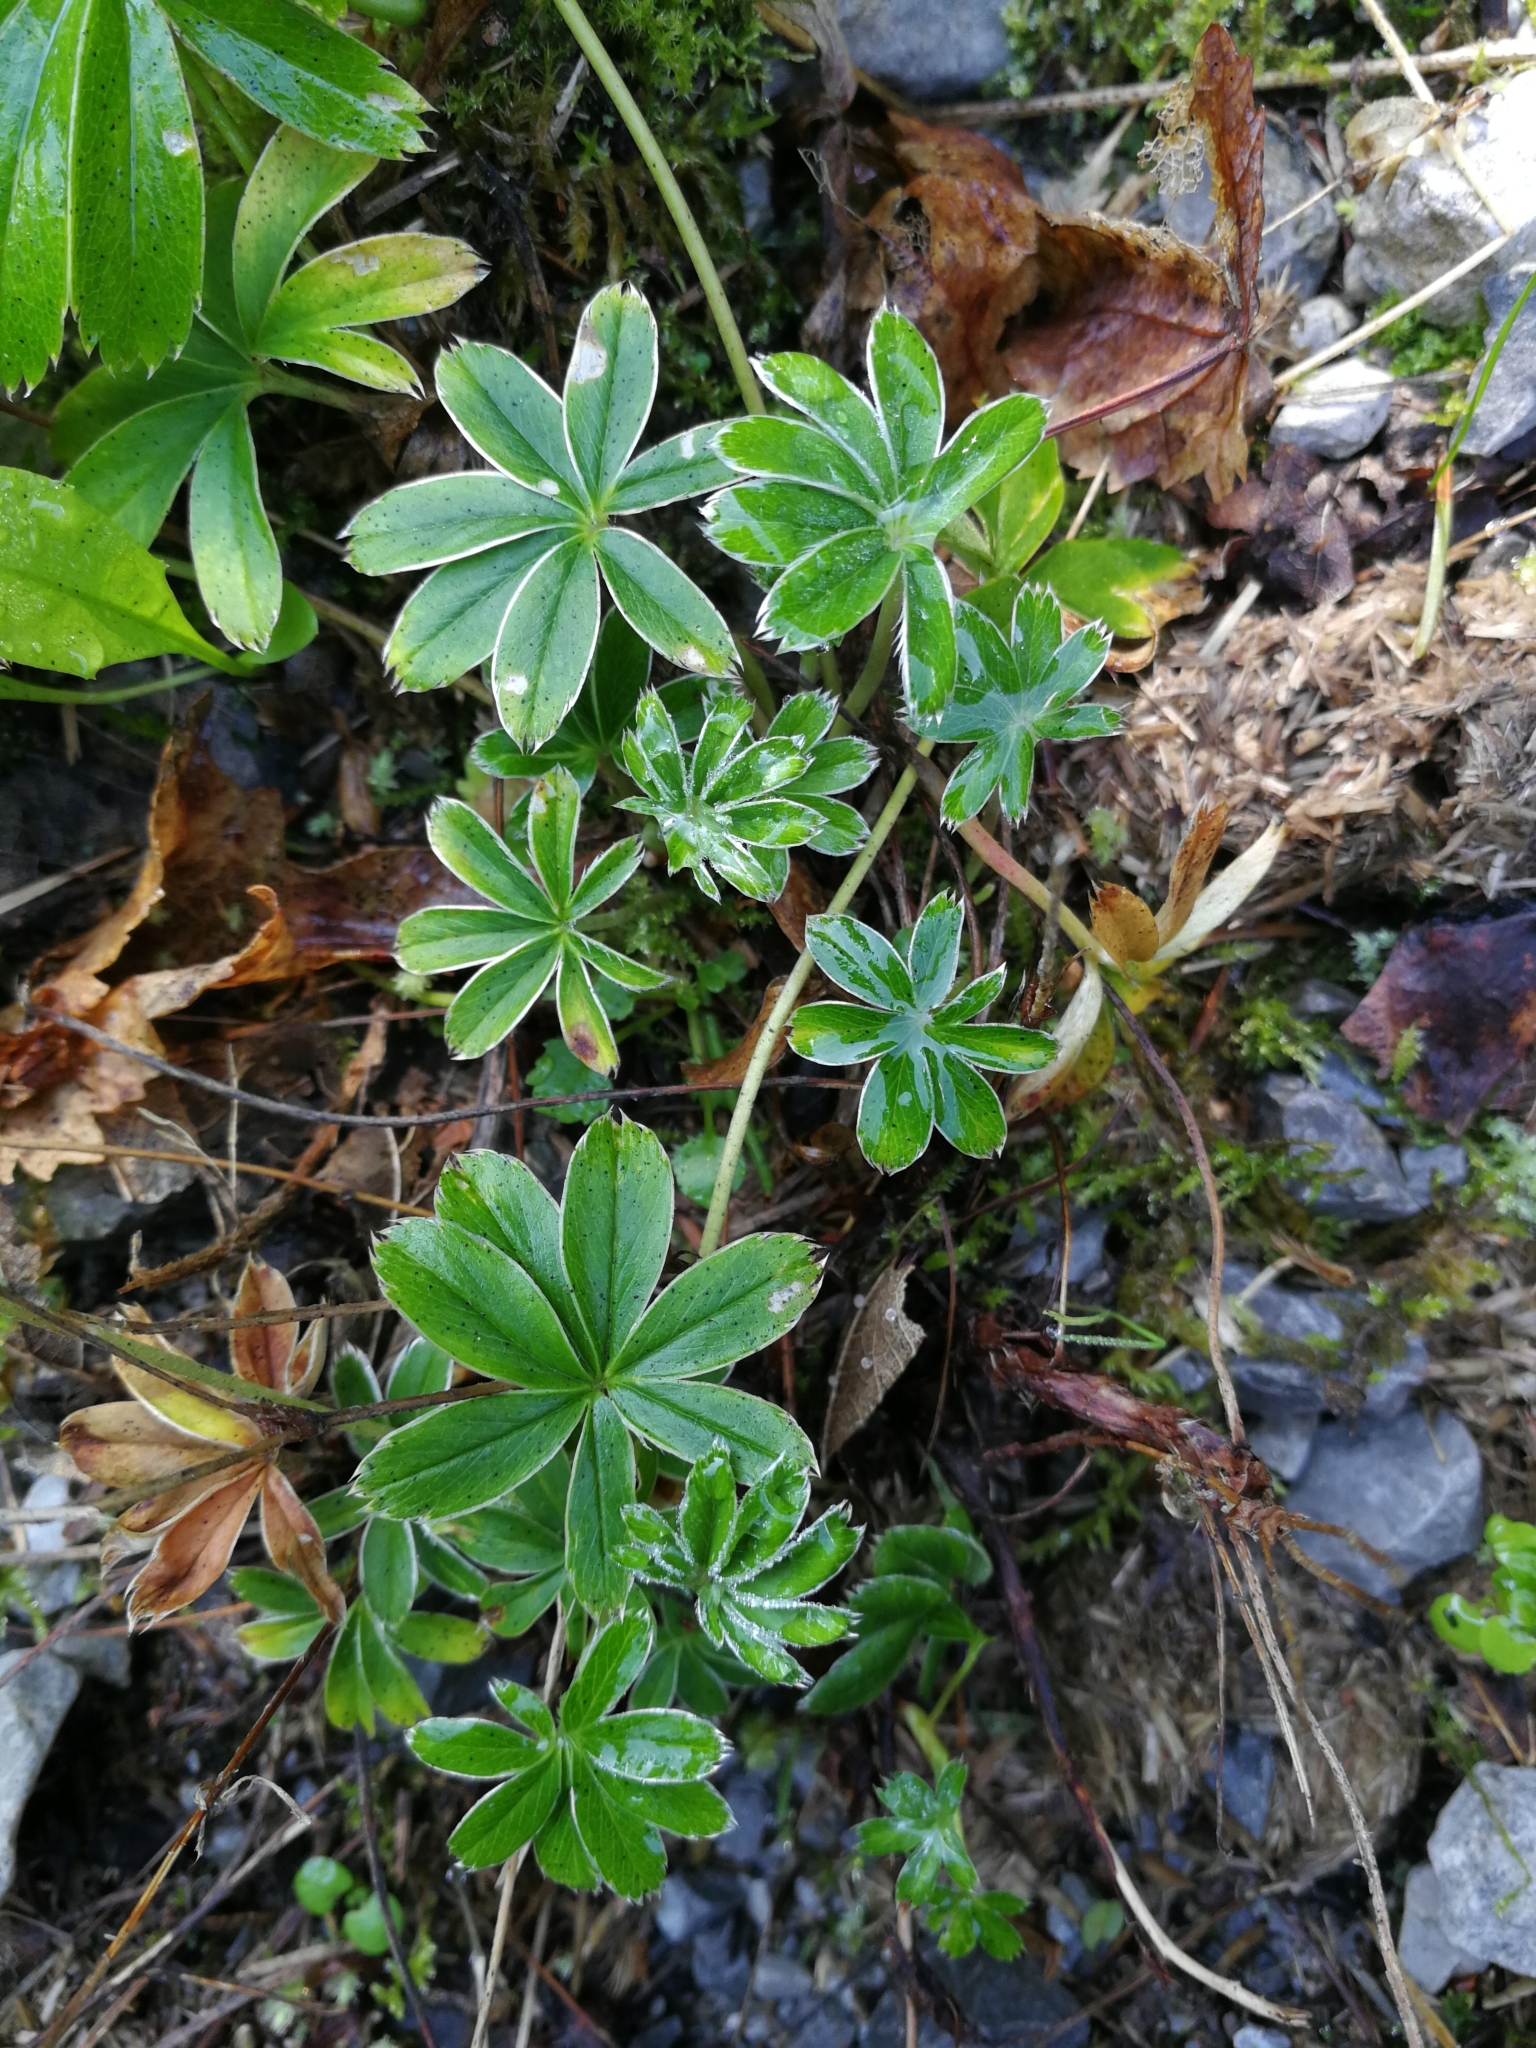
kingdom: Plantae
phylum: Tracheophyta
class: Magnoliopsida
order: Rosales
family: Rosaceae
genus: Alchemilla
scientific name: Alchemilla alpina
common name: Alpine lady's-mantle
